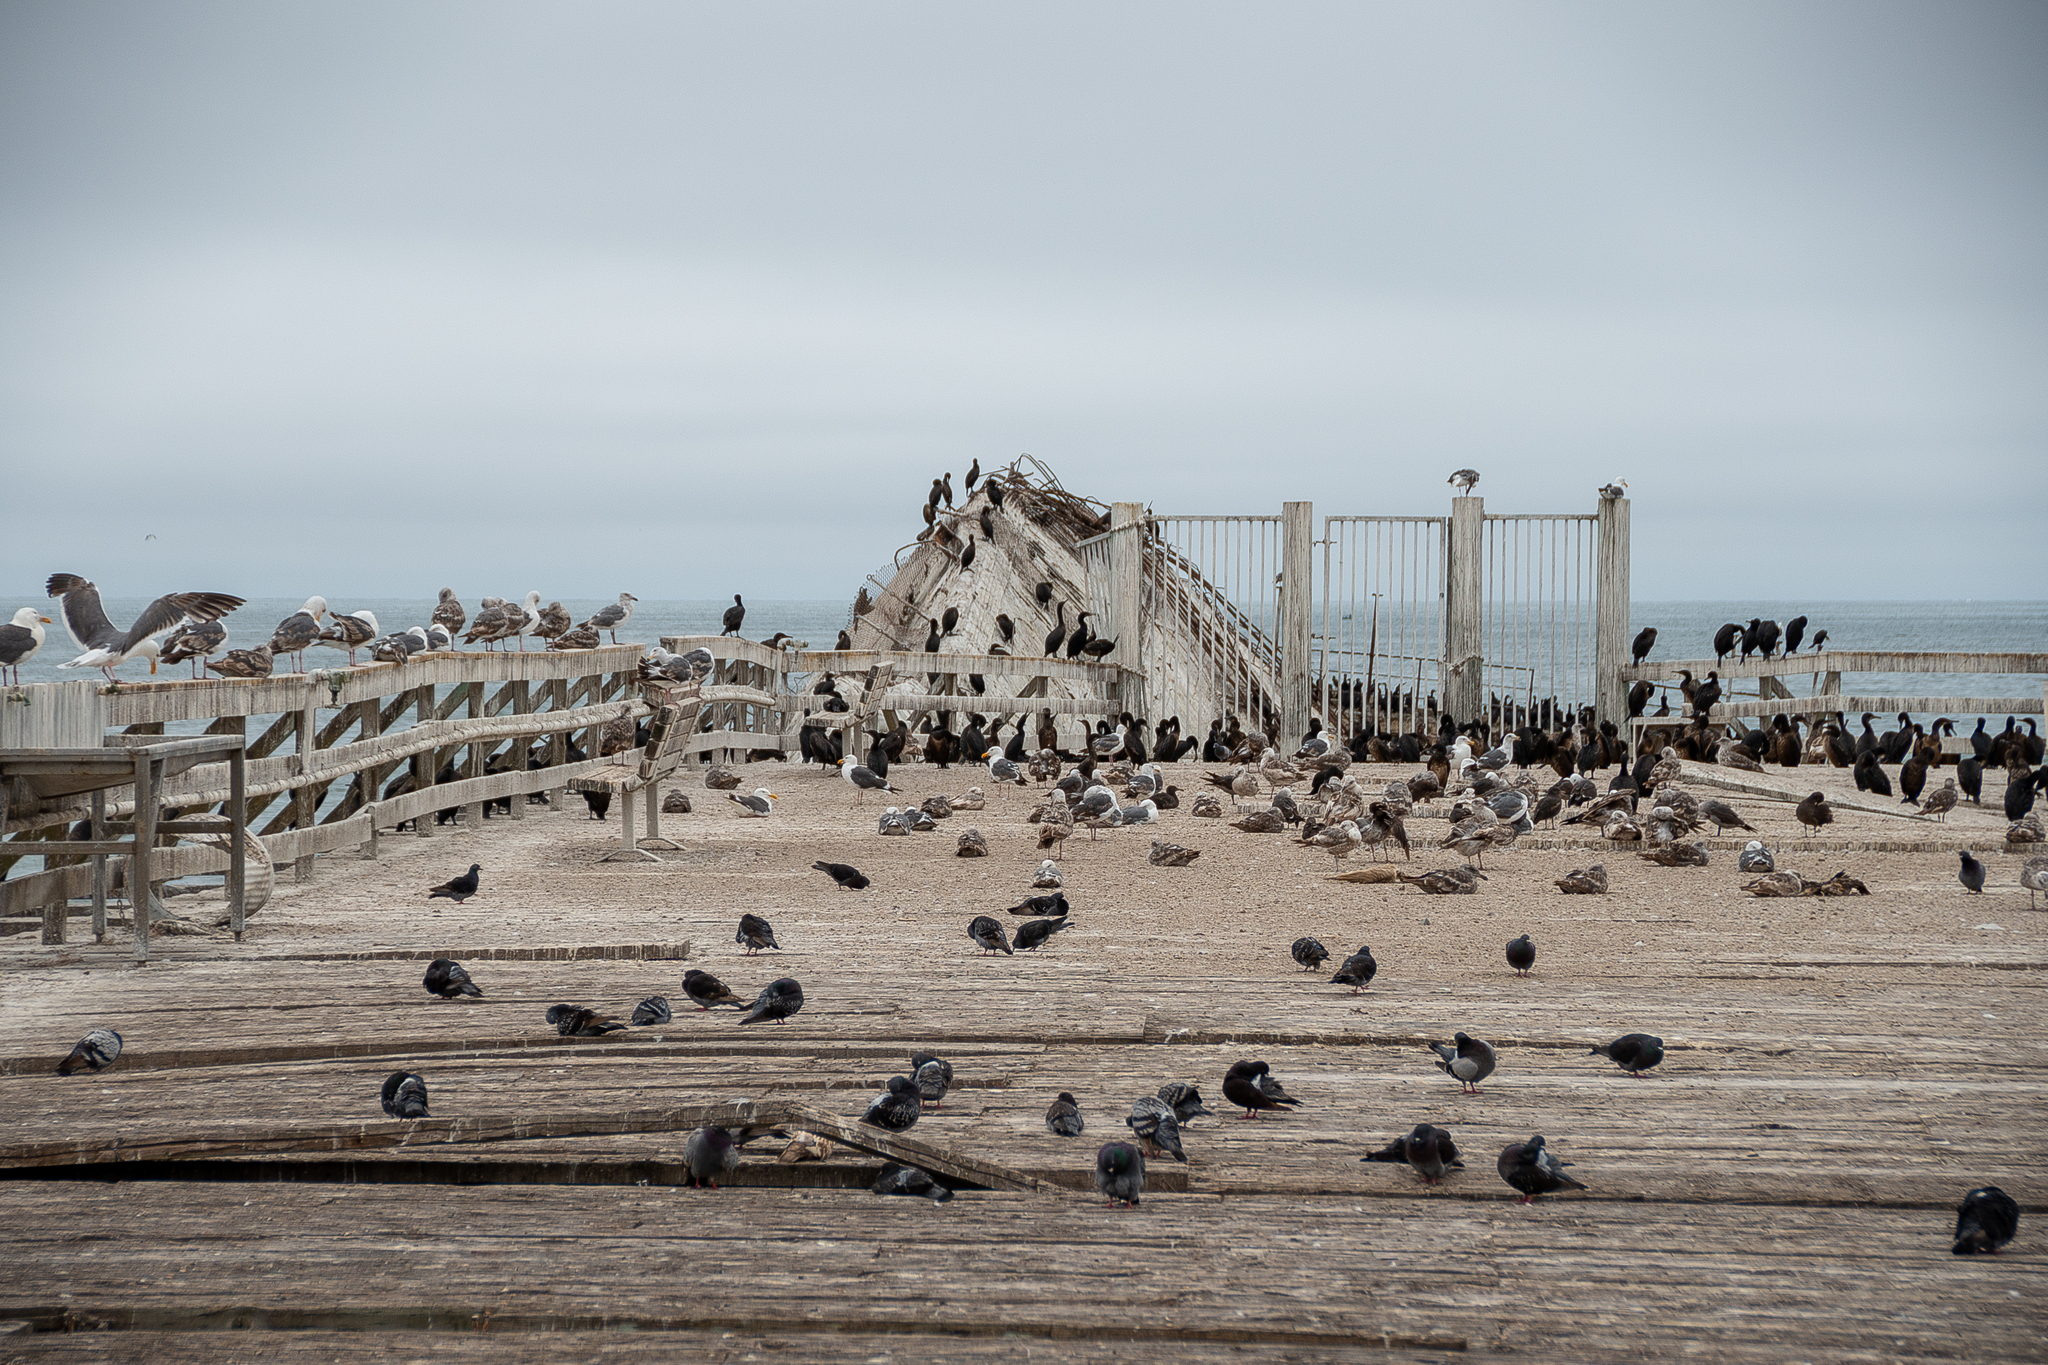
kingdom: Animalia
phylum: Chordata
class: Aves
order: Columbiformes
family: Columbidae
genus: Columba
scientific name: Columba livia
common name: Rock pigeon
